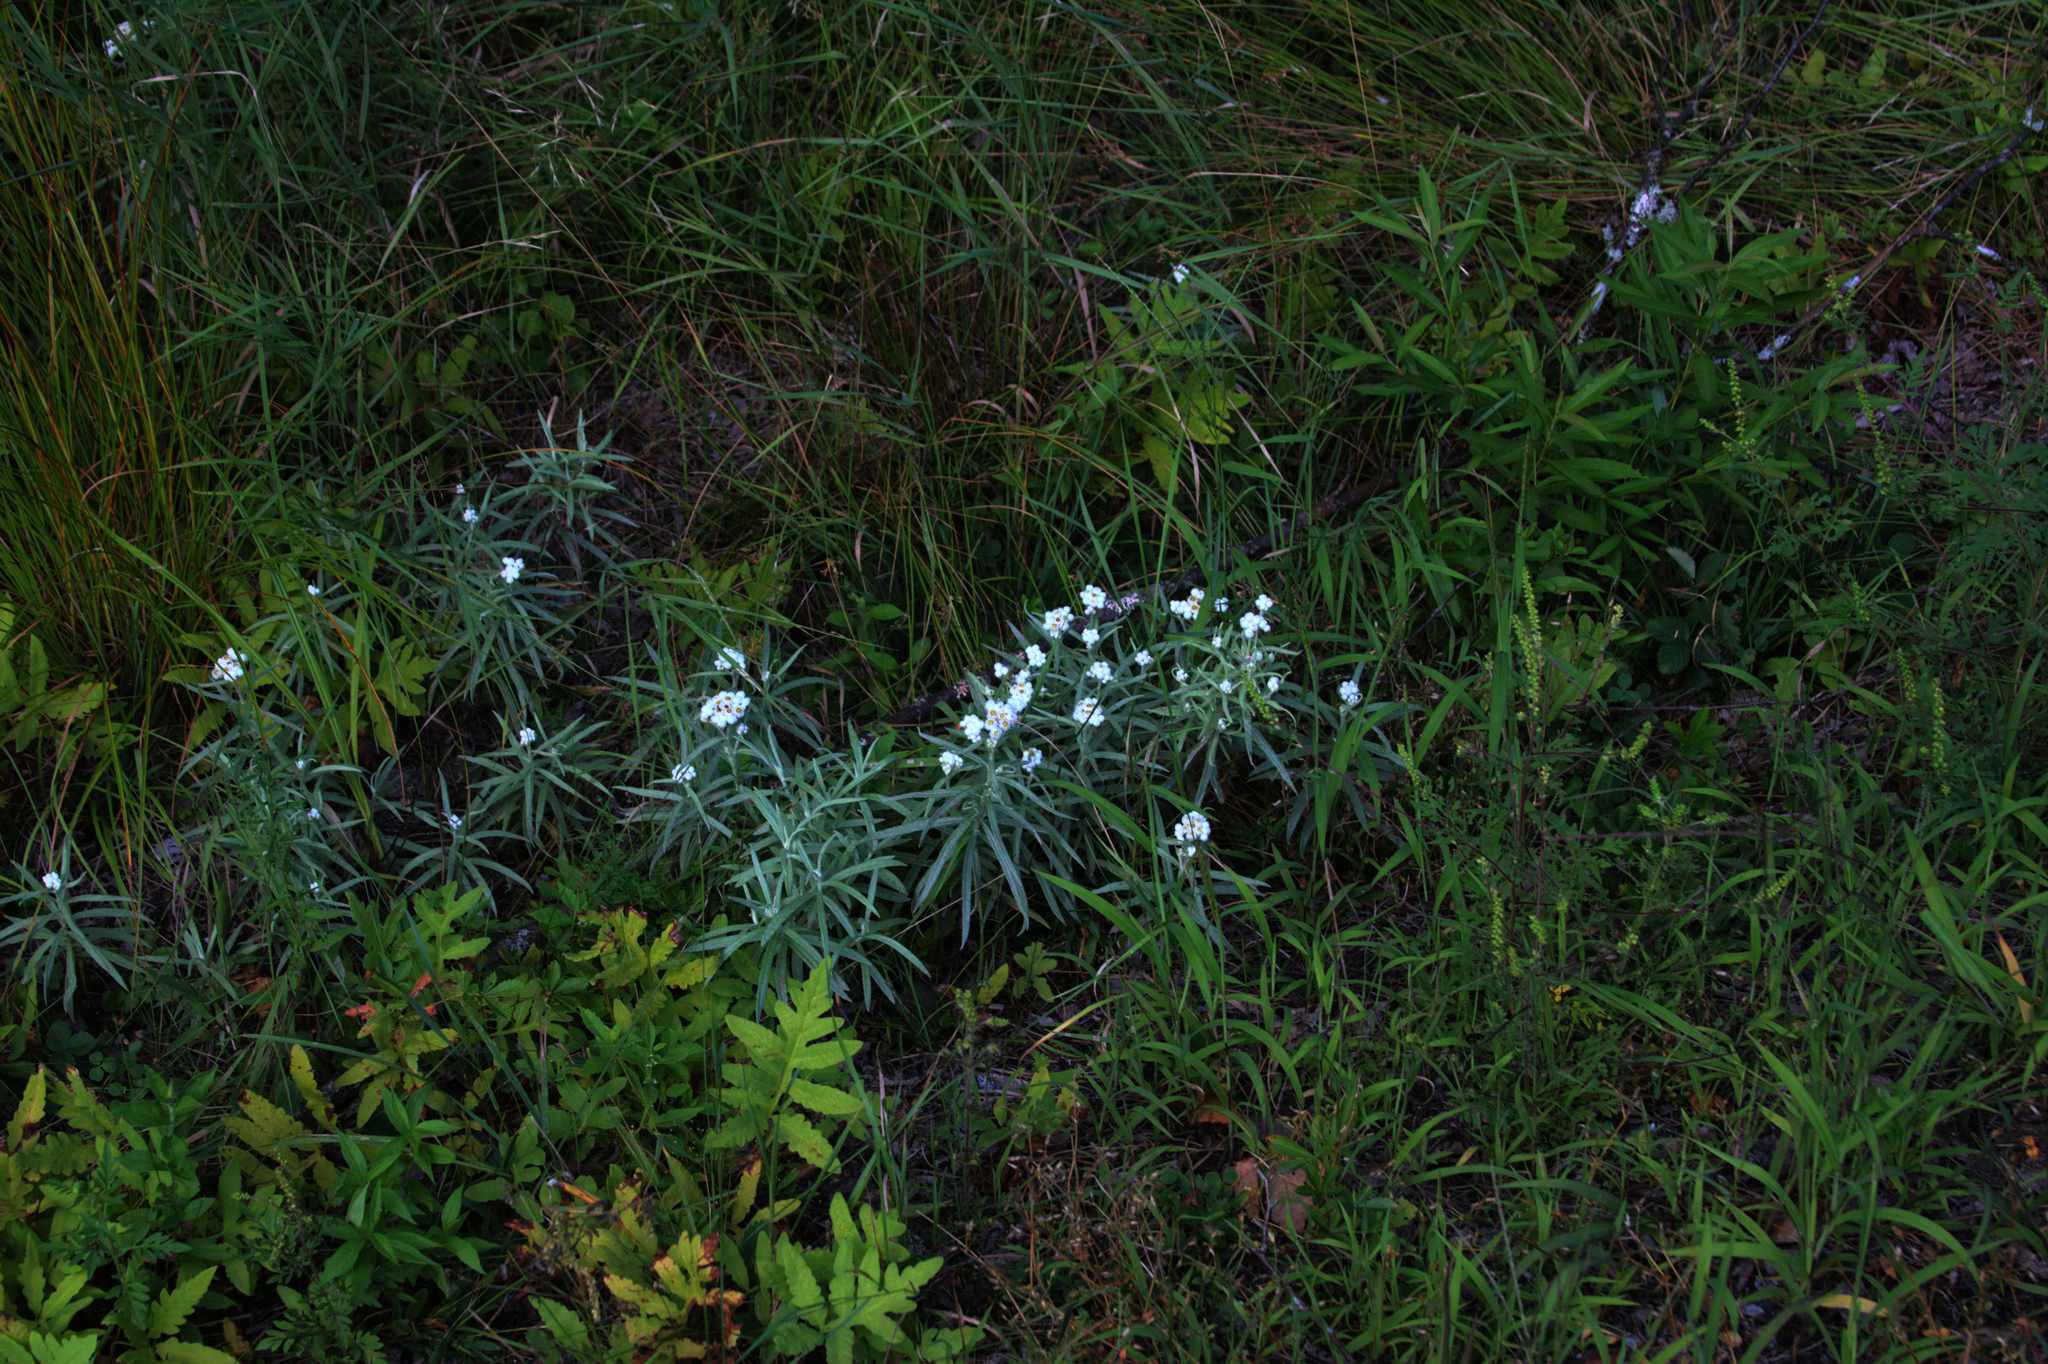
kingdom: Plantae
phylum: Tracheophyta
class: Magnoliopsida
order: Asterales
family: Asteraceae
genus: Anaphalis
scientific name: Anaphalis margaritacea
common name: Pearly everlasting
